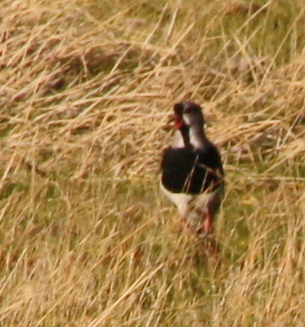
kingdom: Animalia
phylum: Chordata
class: Aves
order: Charadriiformes
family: Charadriidae
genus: Vanellus
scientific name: Vanellus chilensis
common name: Southern lapwing
